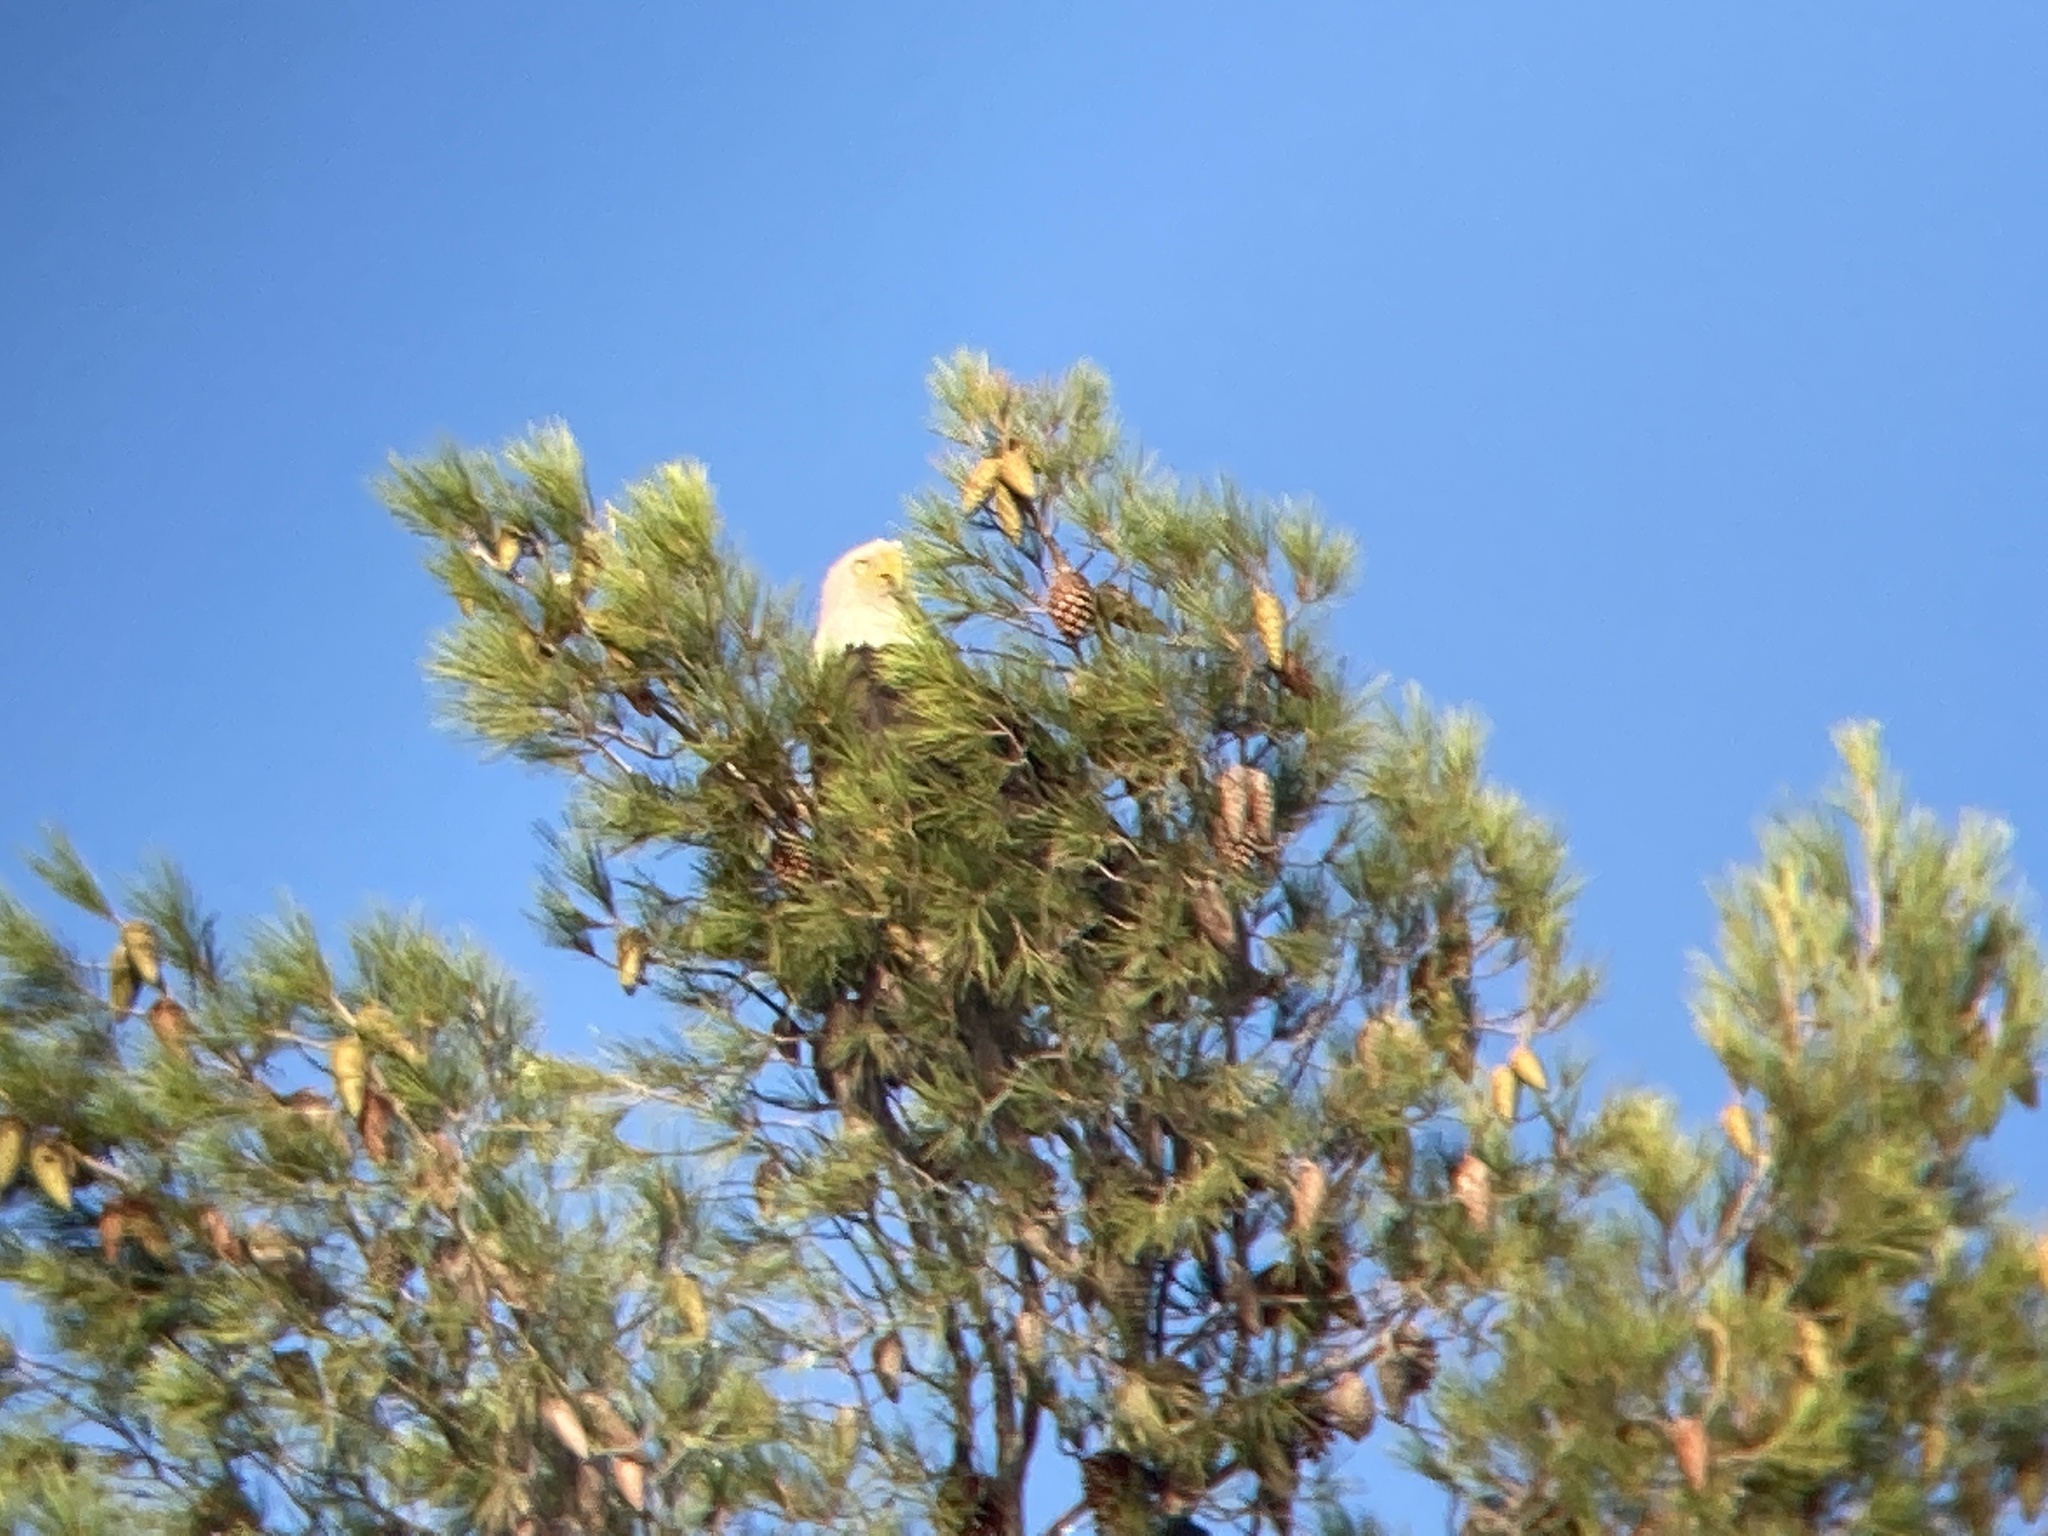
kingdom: Animalia
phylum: Chordata
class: Aves
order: Accipitriformes
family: Accipitridae
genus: Haliaeetus
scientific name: Haliaeetus leucocephalus
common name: Bald eagle
